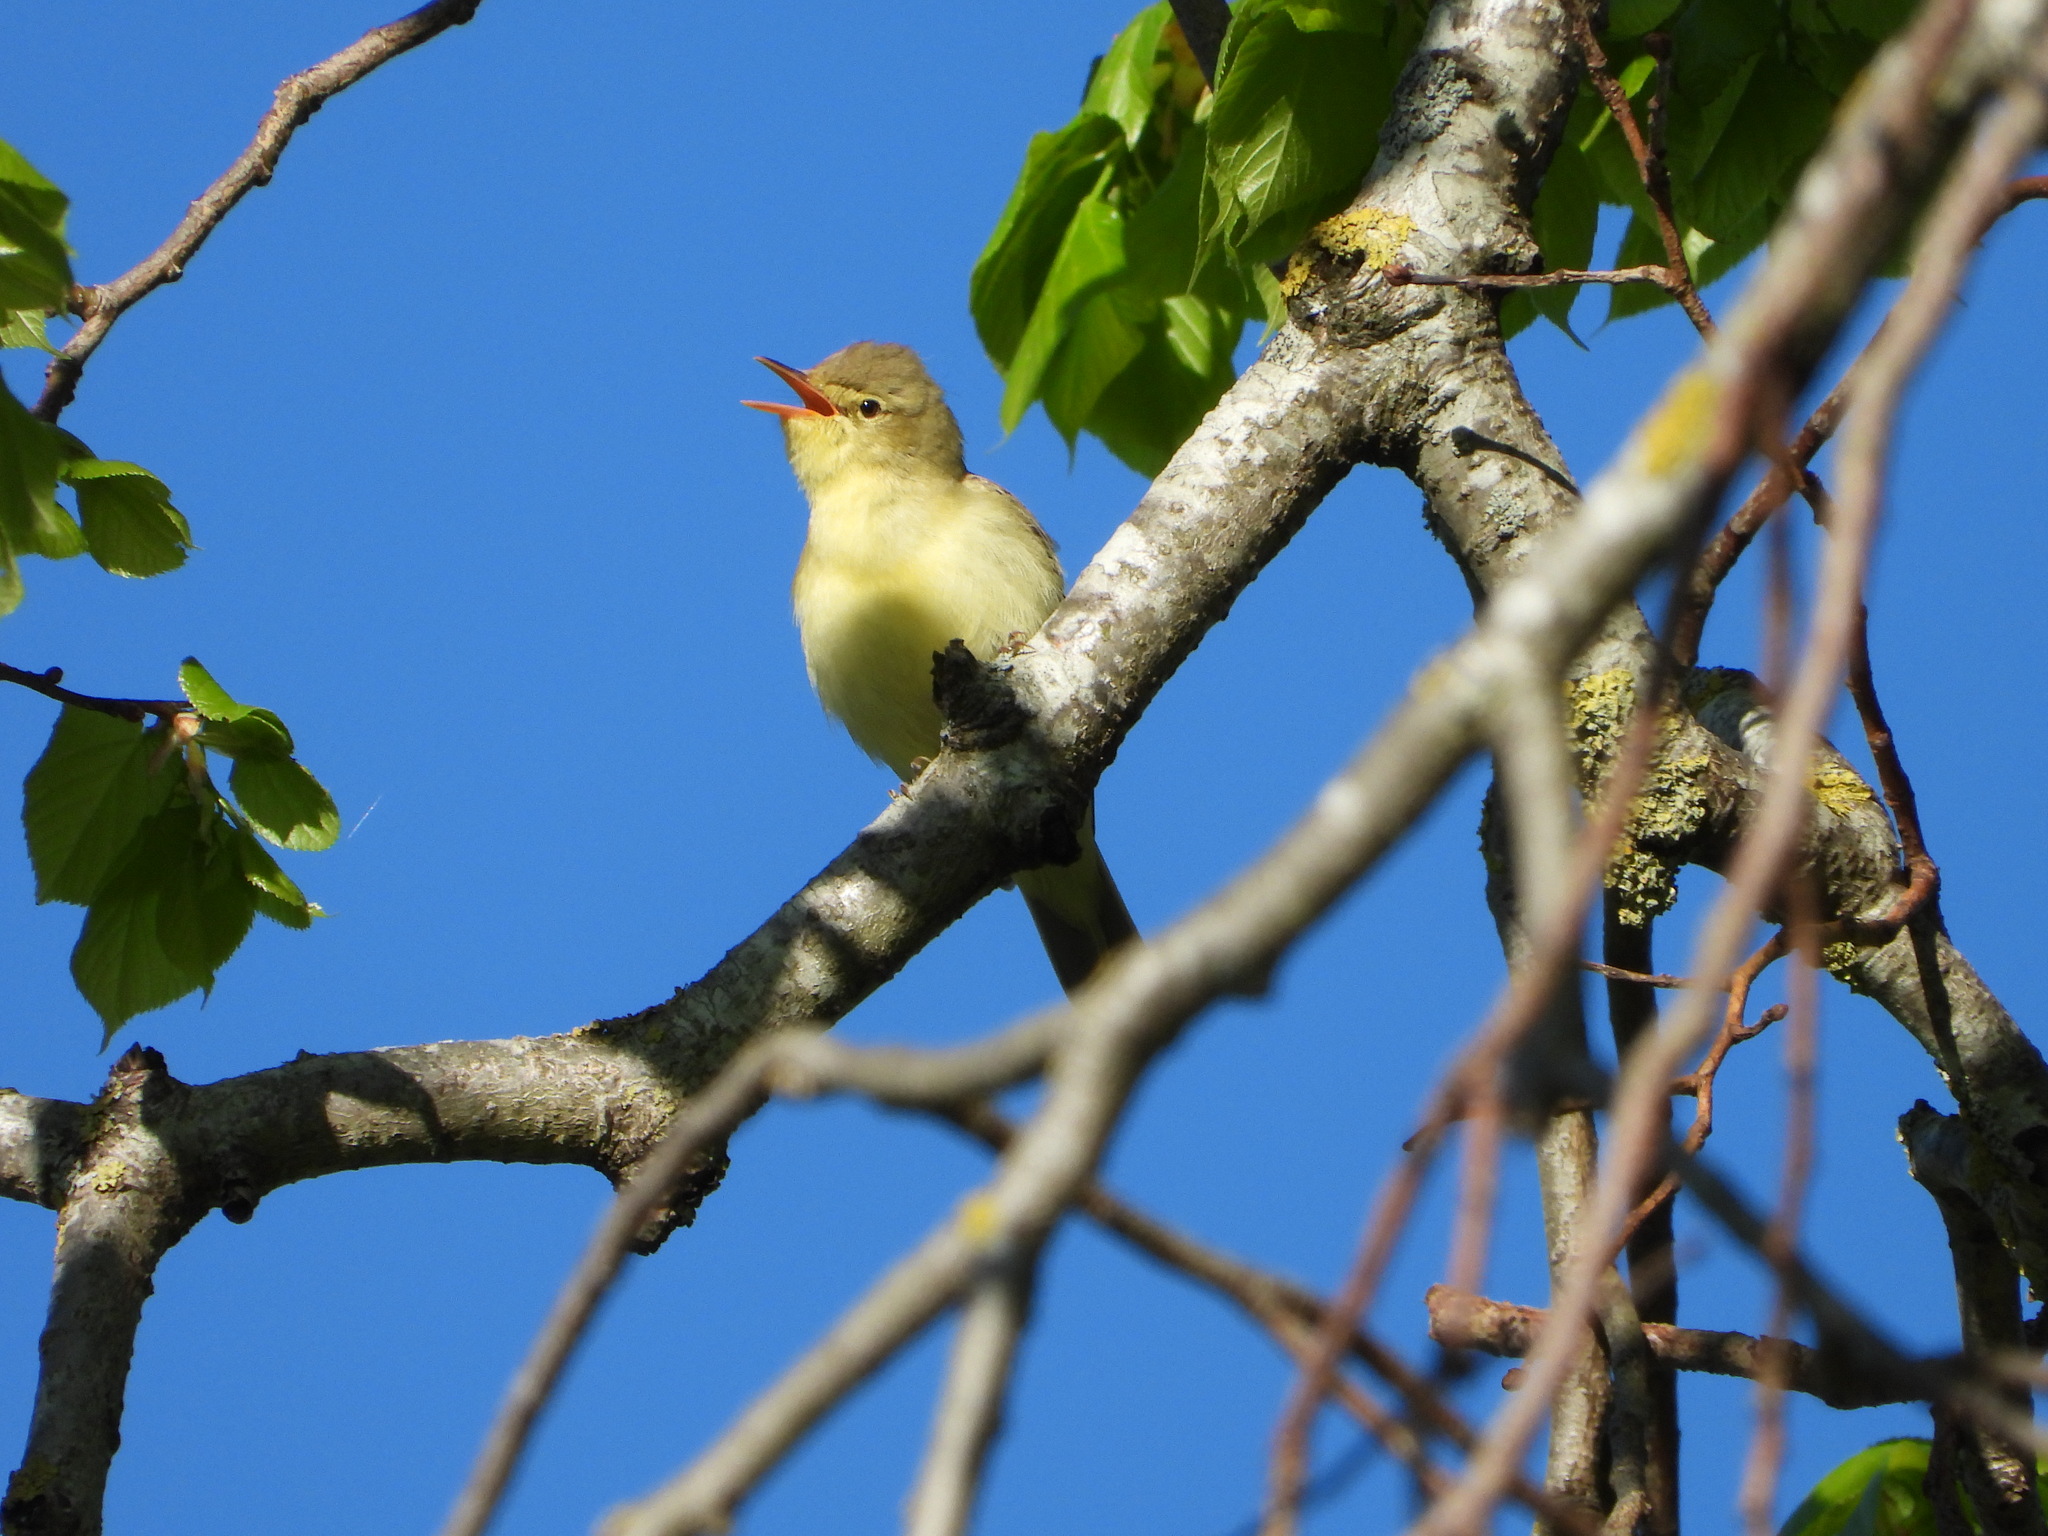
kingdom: Animalia
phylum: Chordata
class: Aves
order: Passeriformes
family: Acrocephalidae
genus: Hippolais
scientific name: Hippolais icterina
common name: Icterine warbler
